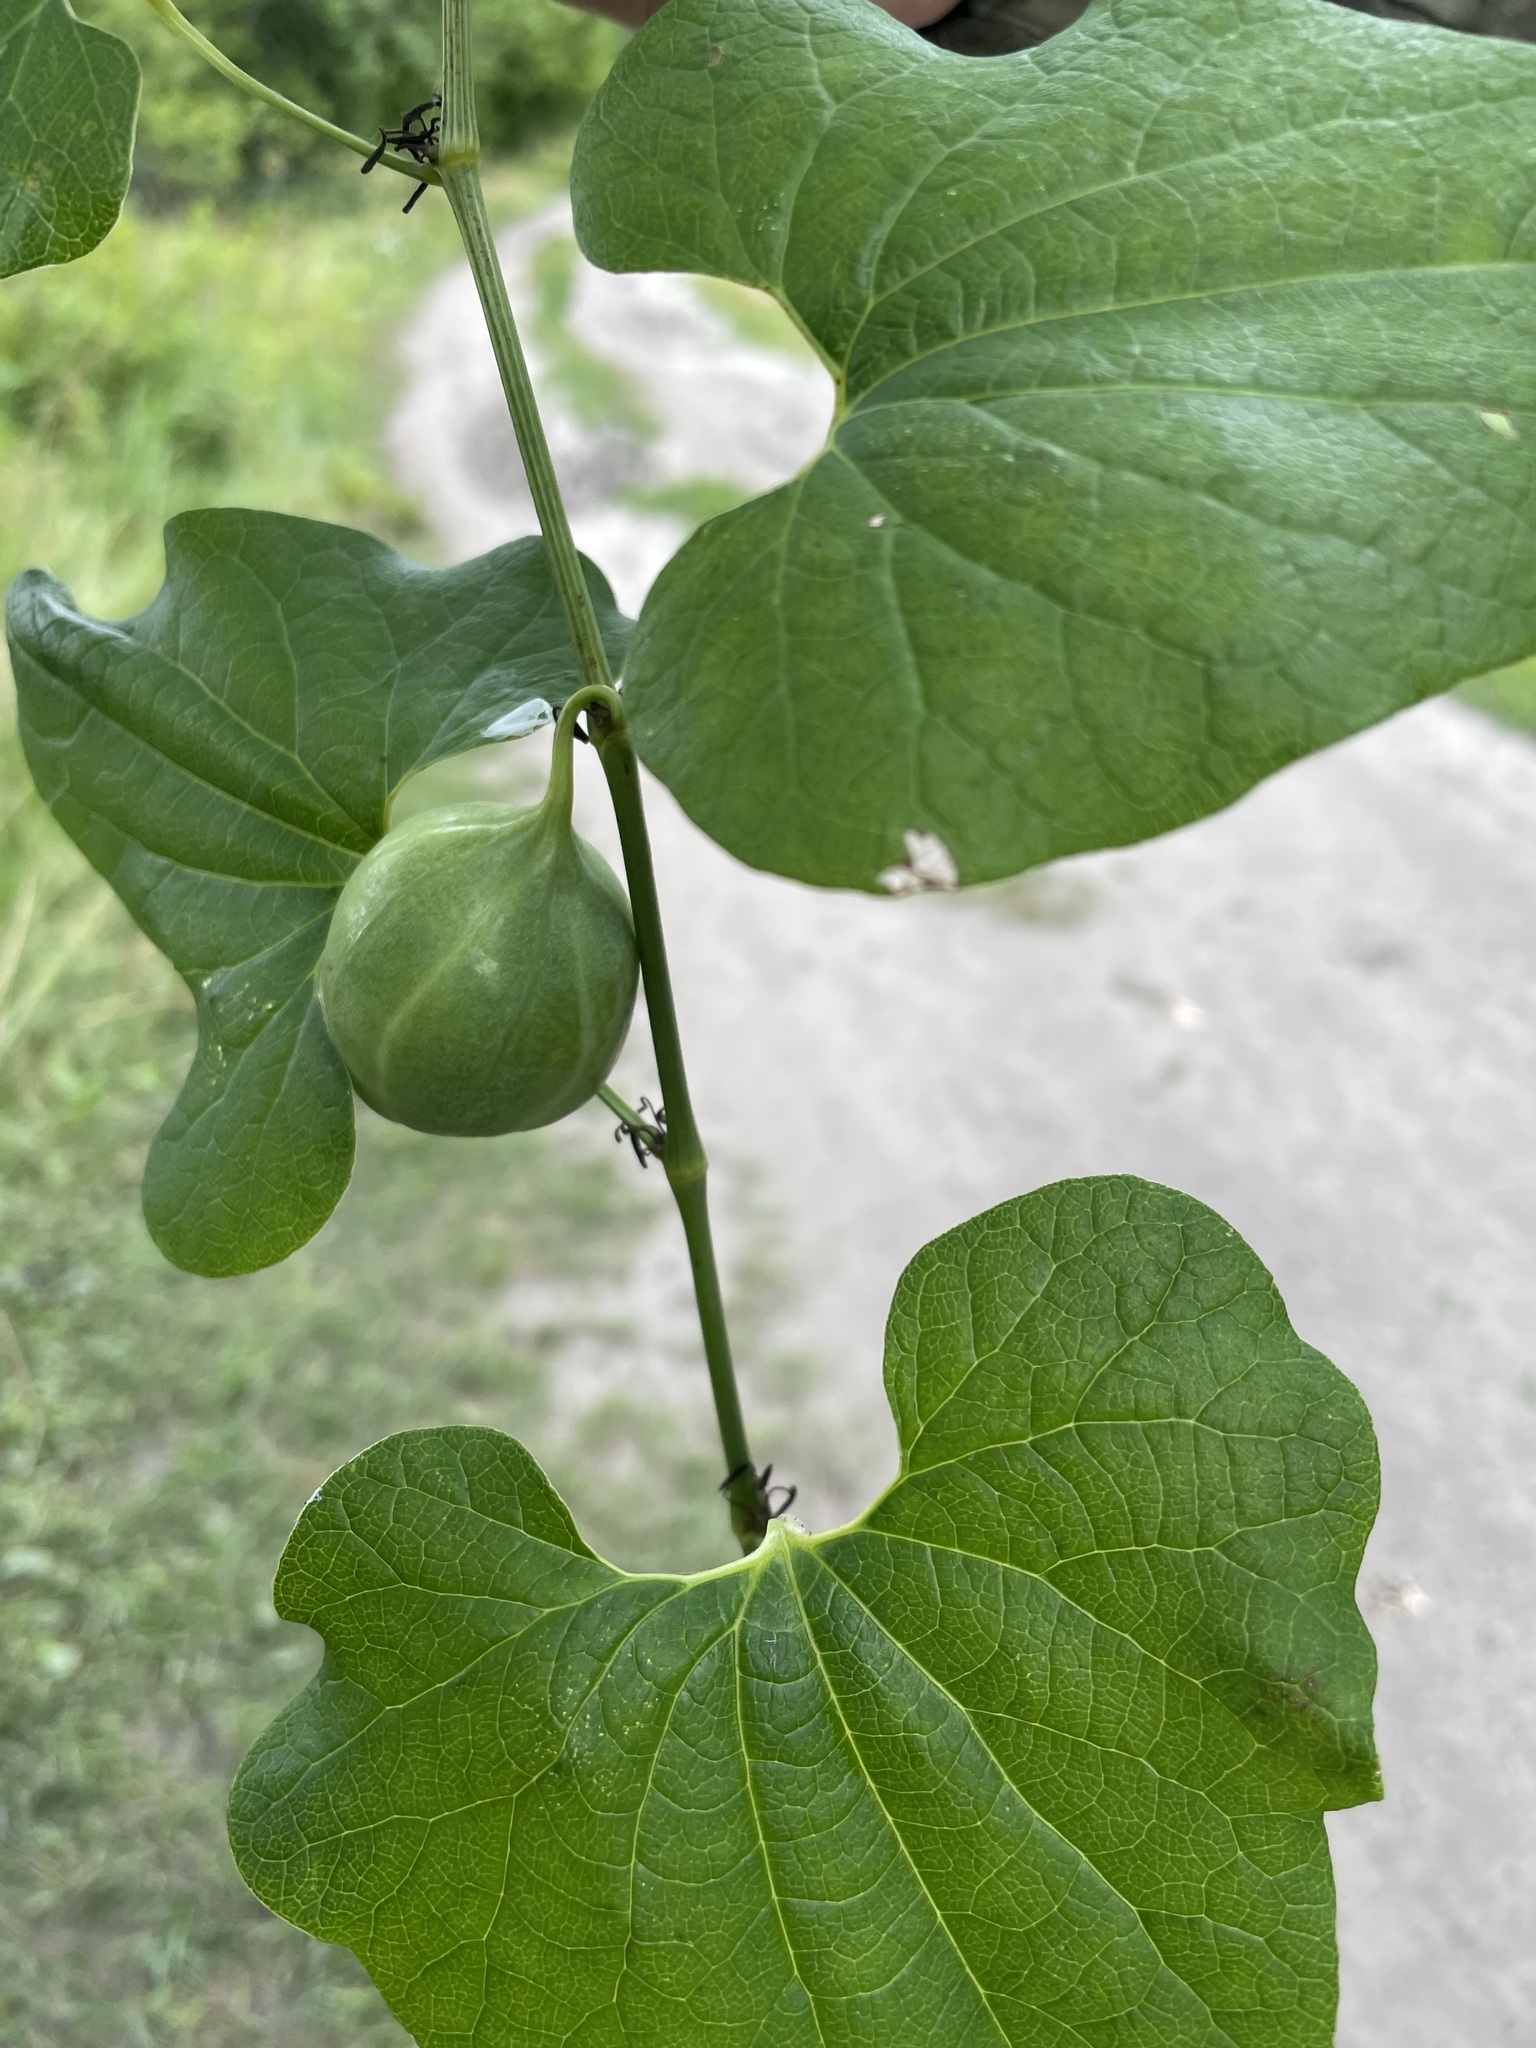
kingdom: Plantae
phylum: Tracheophyta
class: Magnoliopsida
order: Piperales
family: Aristolochiaceae
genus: Aristolochia
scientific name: Aristolochia clematitis
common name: Birthwort
